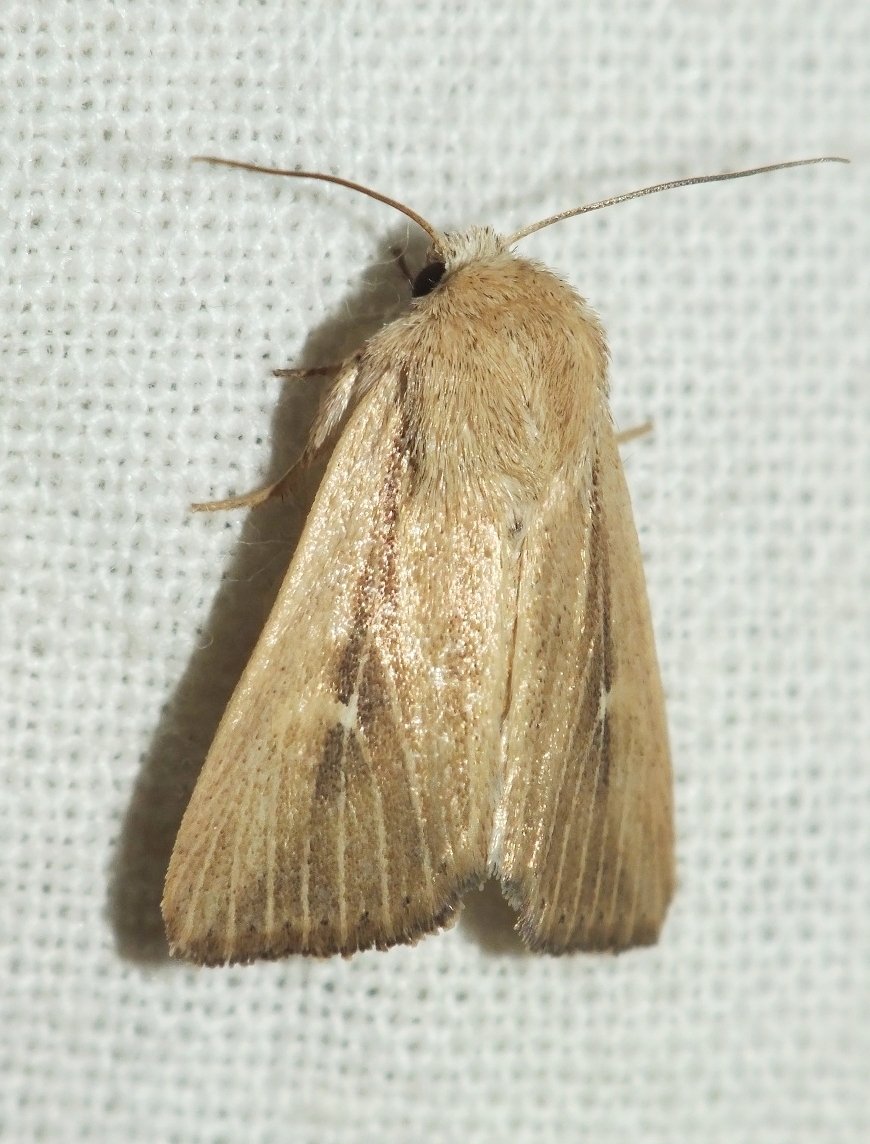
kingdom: Animalia
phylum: Arthropoda
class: Insecta
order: Lepidoptera
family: Noctuidae
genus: Mythimna
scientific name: Mythimna alopecuri
